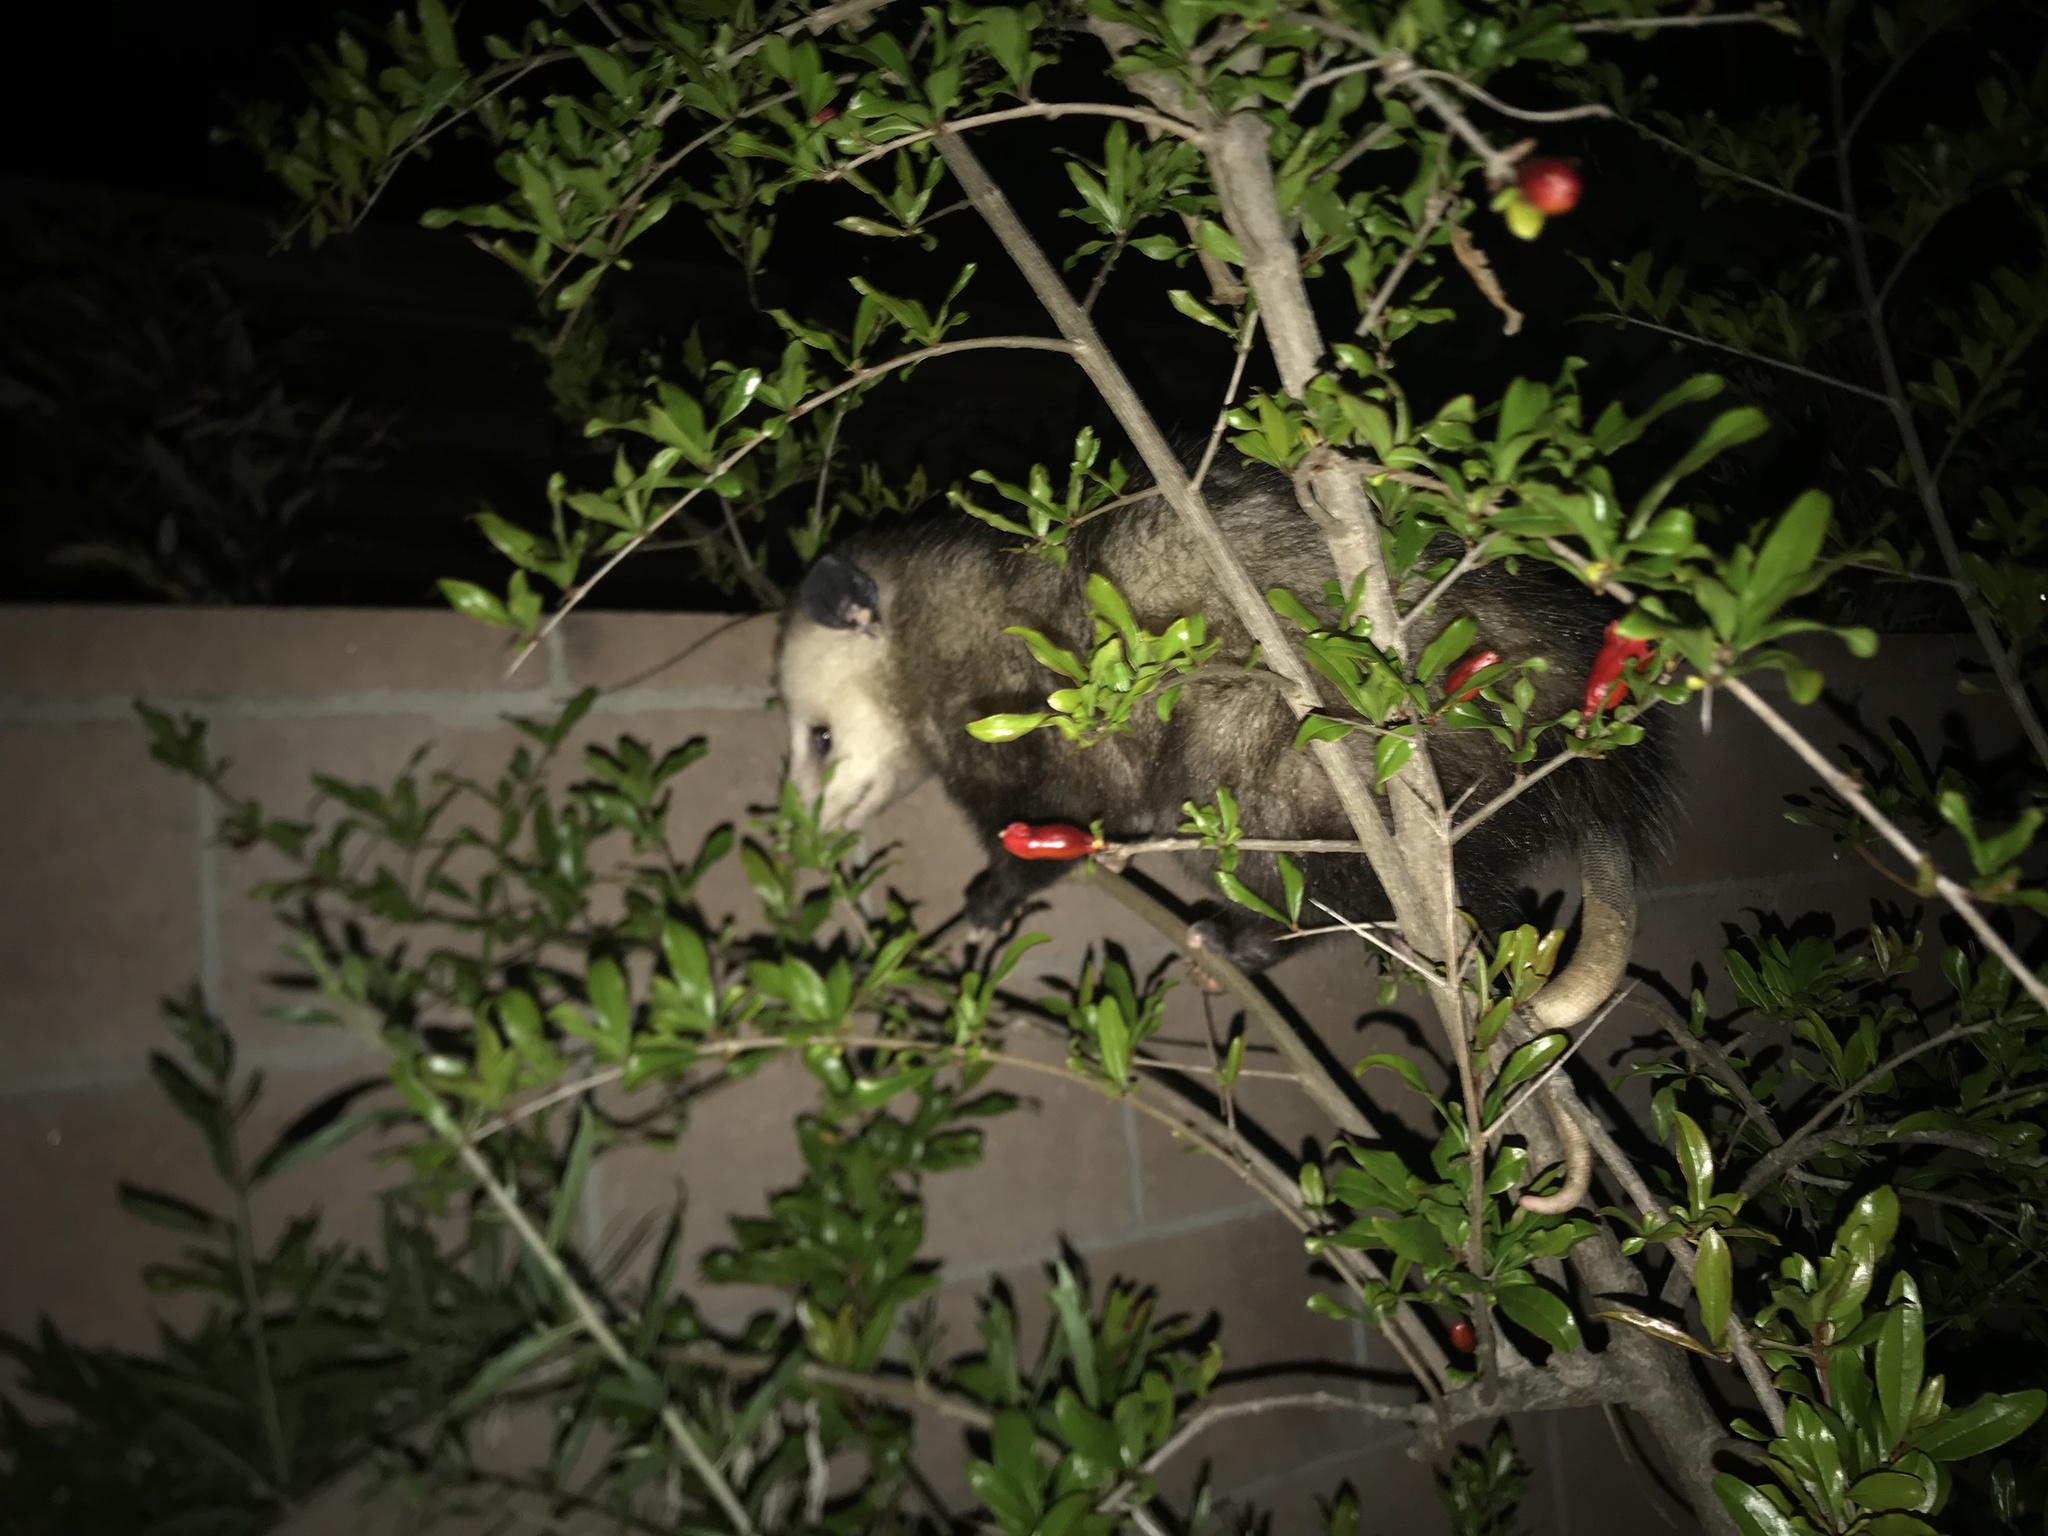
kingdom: Animalia
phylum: Chordata
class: Mammalia
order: Didelphimorphia
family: Didelphidae
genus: Didelphis
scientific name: Didelphis virginiana
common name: Virginia opossum
